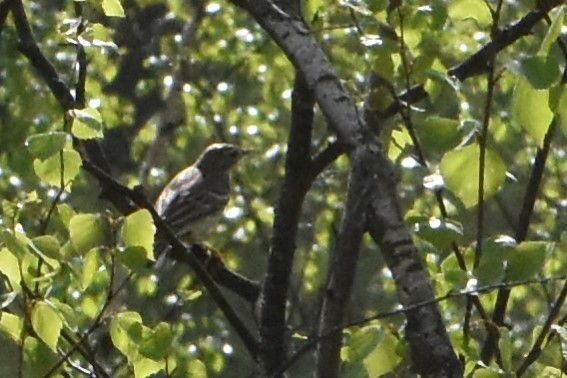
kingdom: Animalia
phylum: Chordata
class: Aves
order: Passeriformes
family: Motacillidae
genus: Anthus
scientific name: Anthus trivialis
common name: Tree pipit
